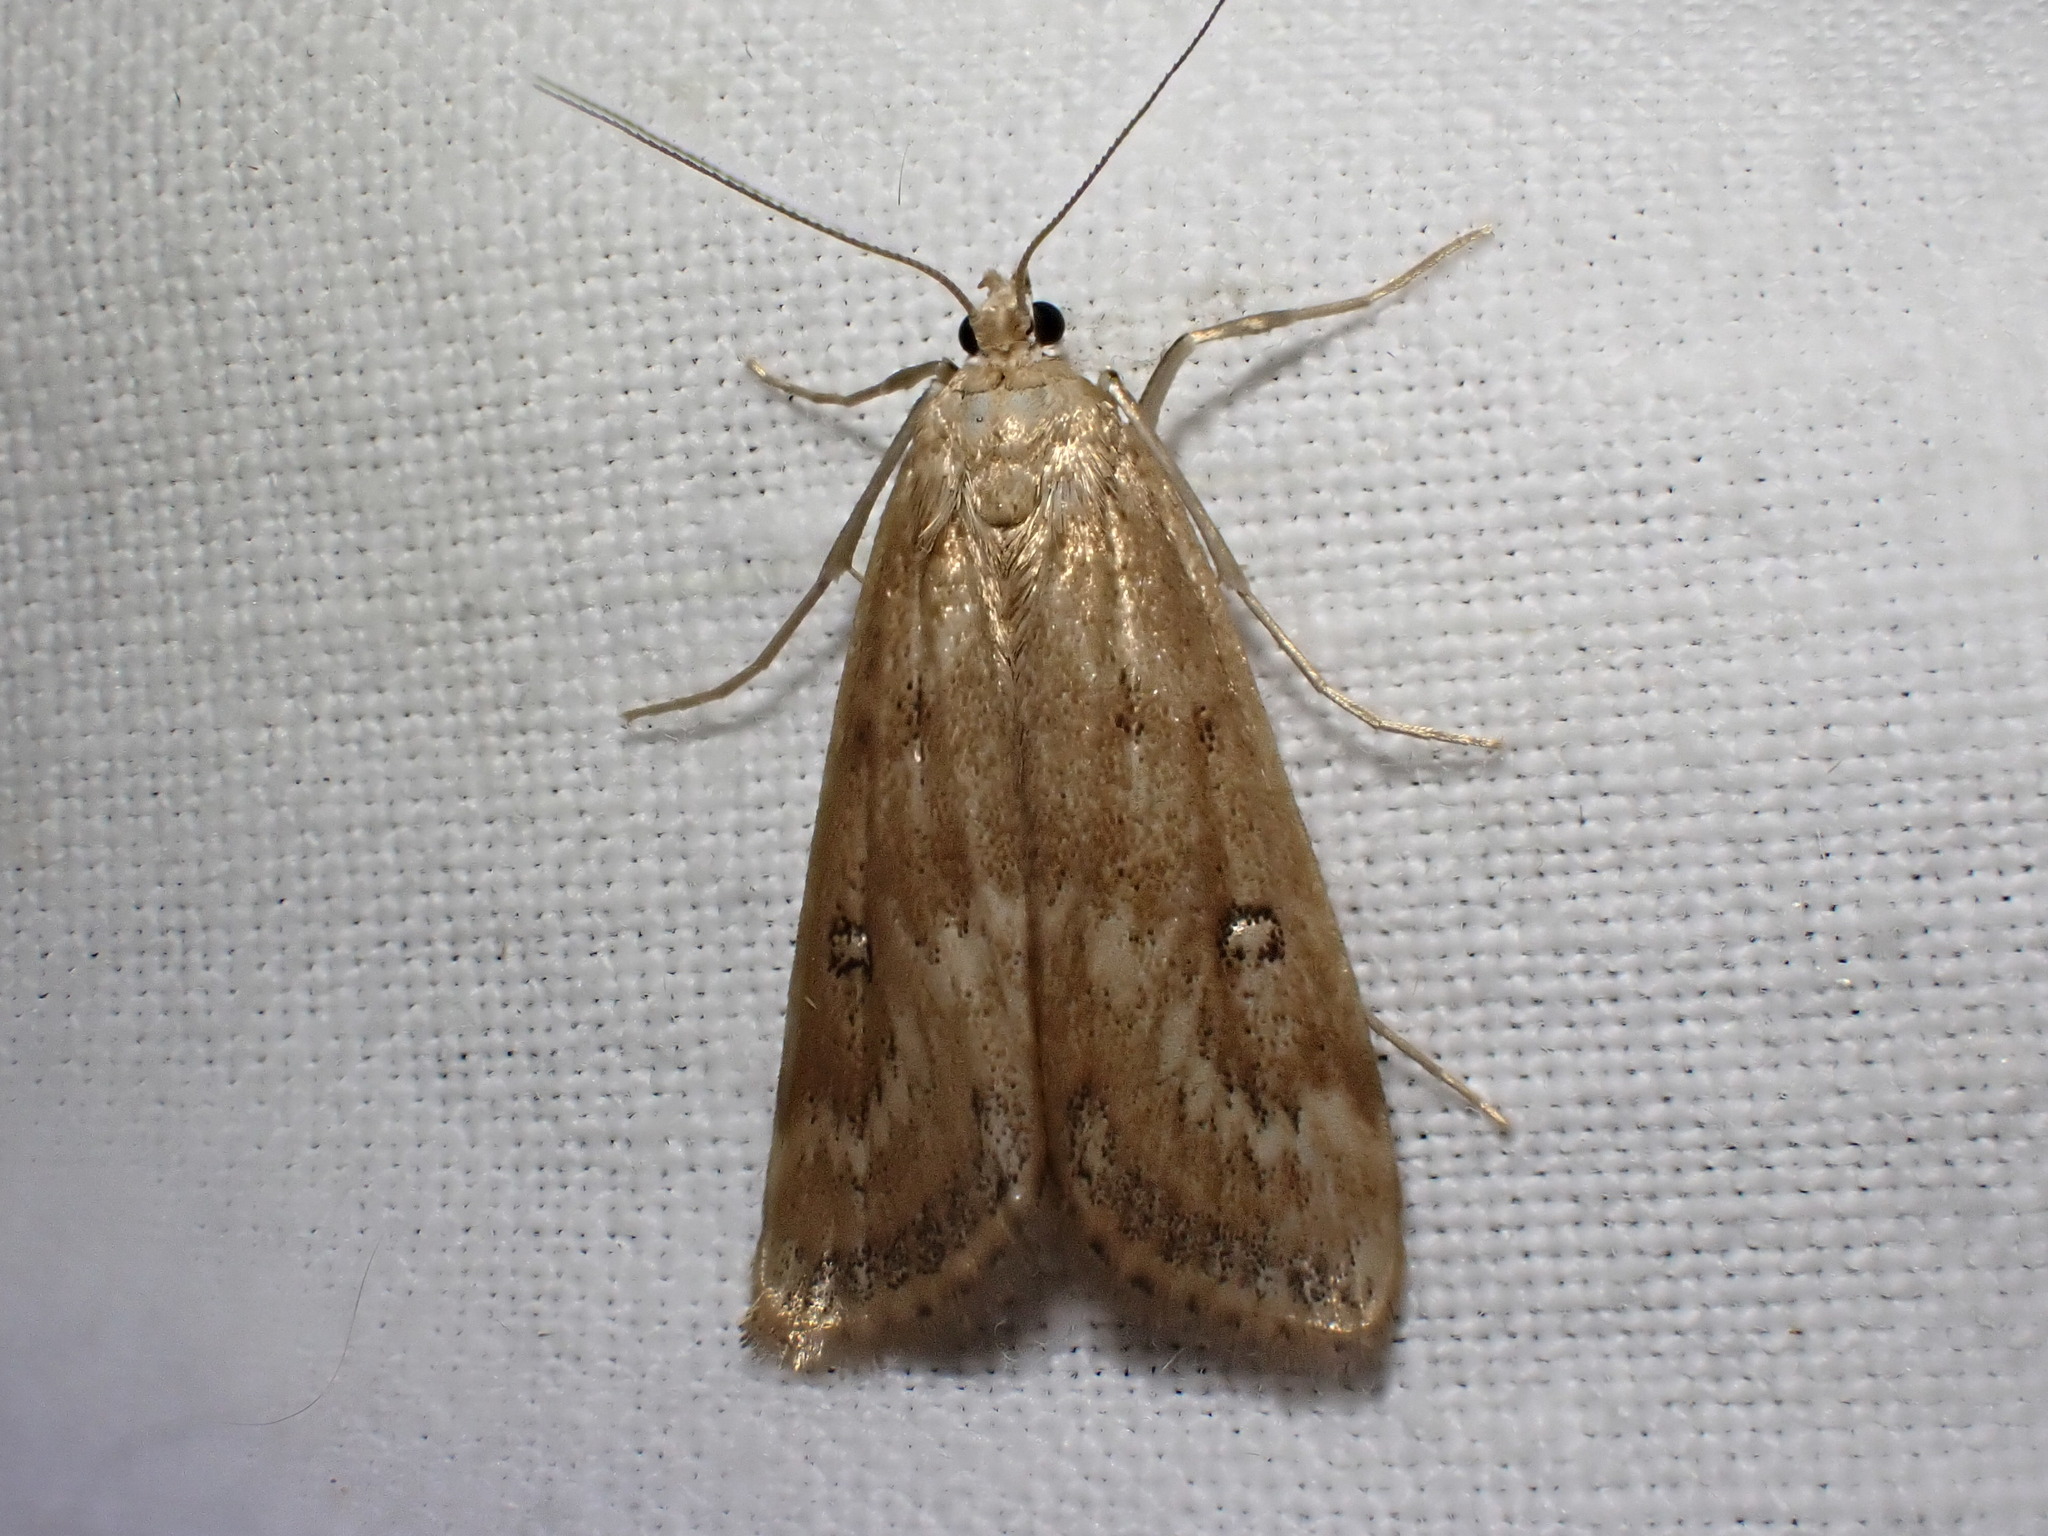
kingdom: Animalia
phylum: Arthropoda
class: Insecta
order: Lepidoptera
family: Crambidae
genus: Parapoynx
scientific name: Parapoynx stratiotata
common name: Ringed china-mark
